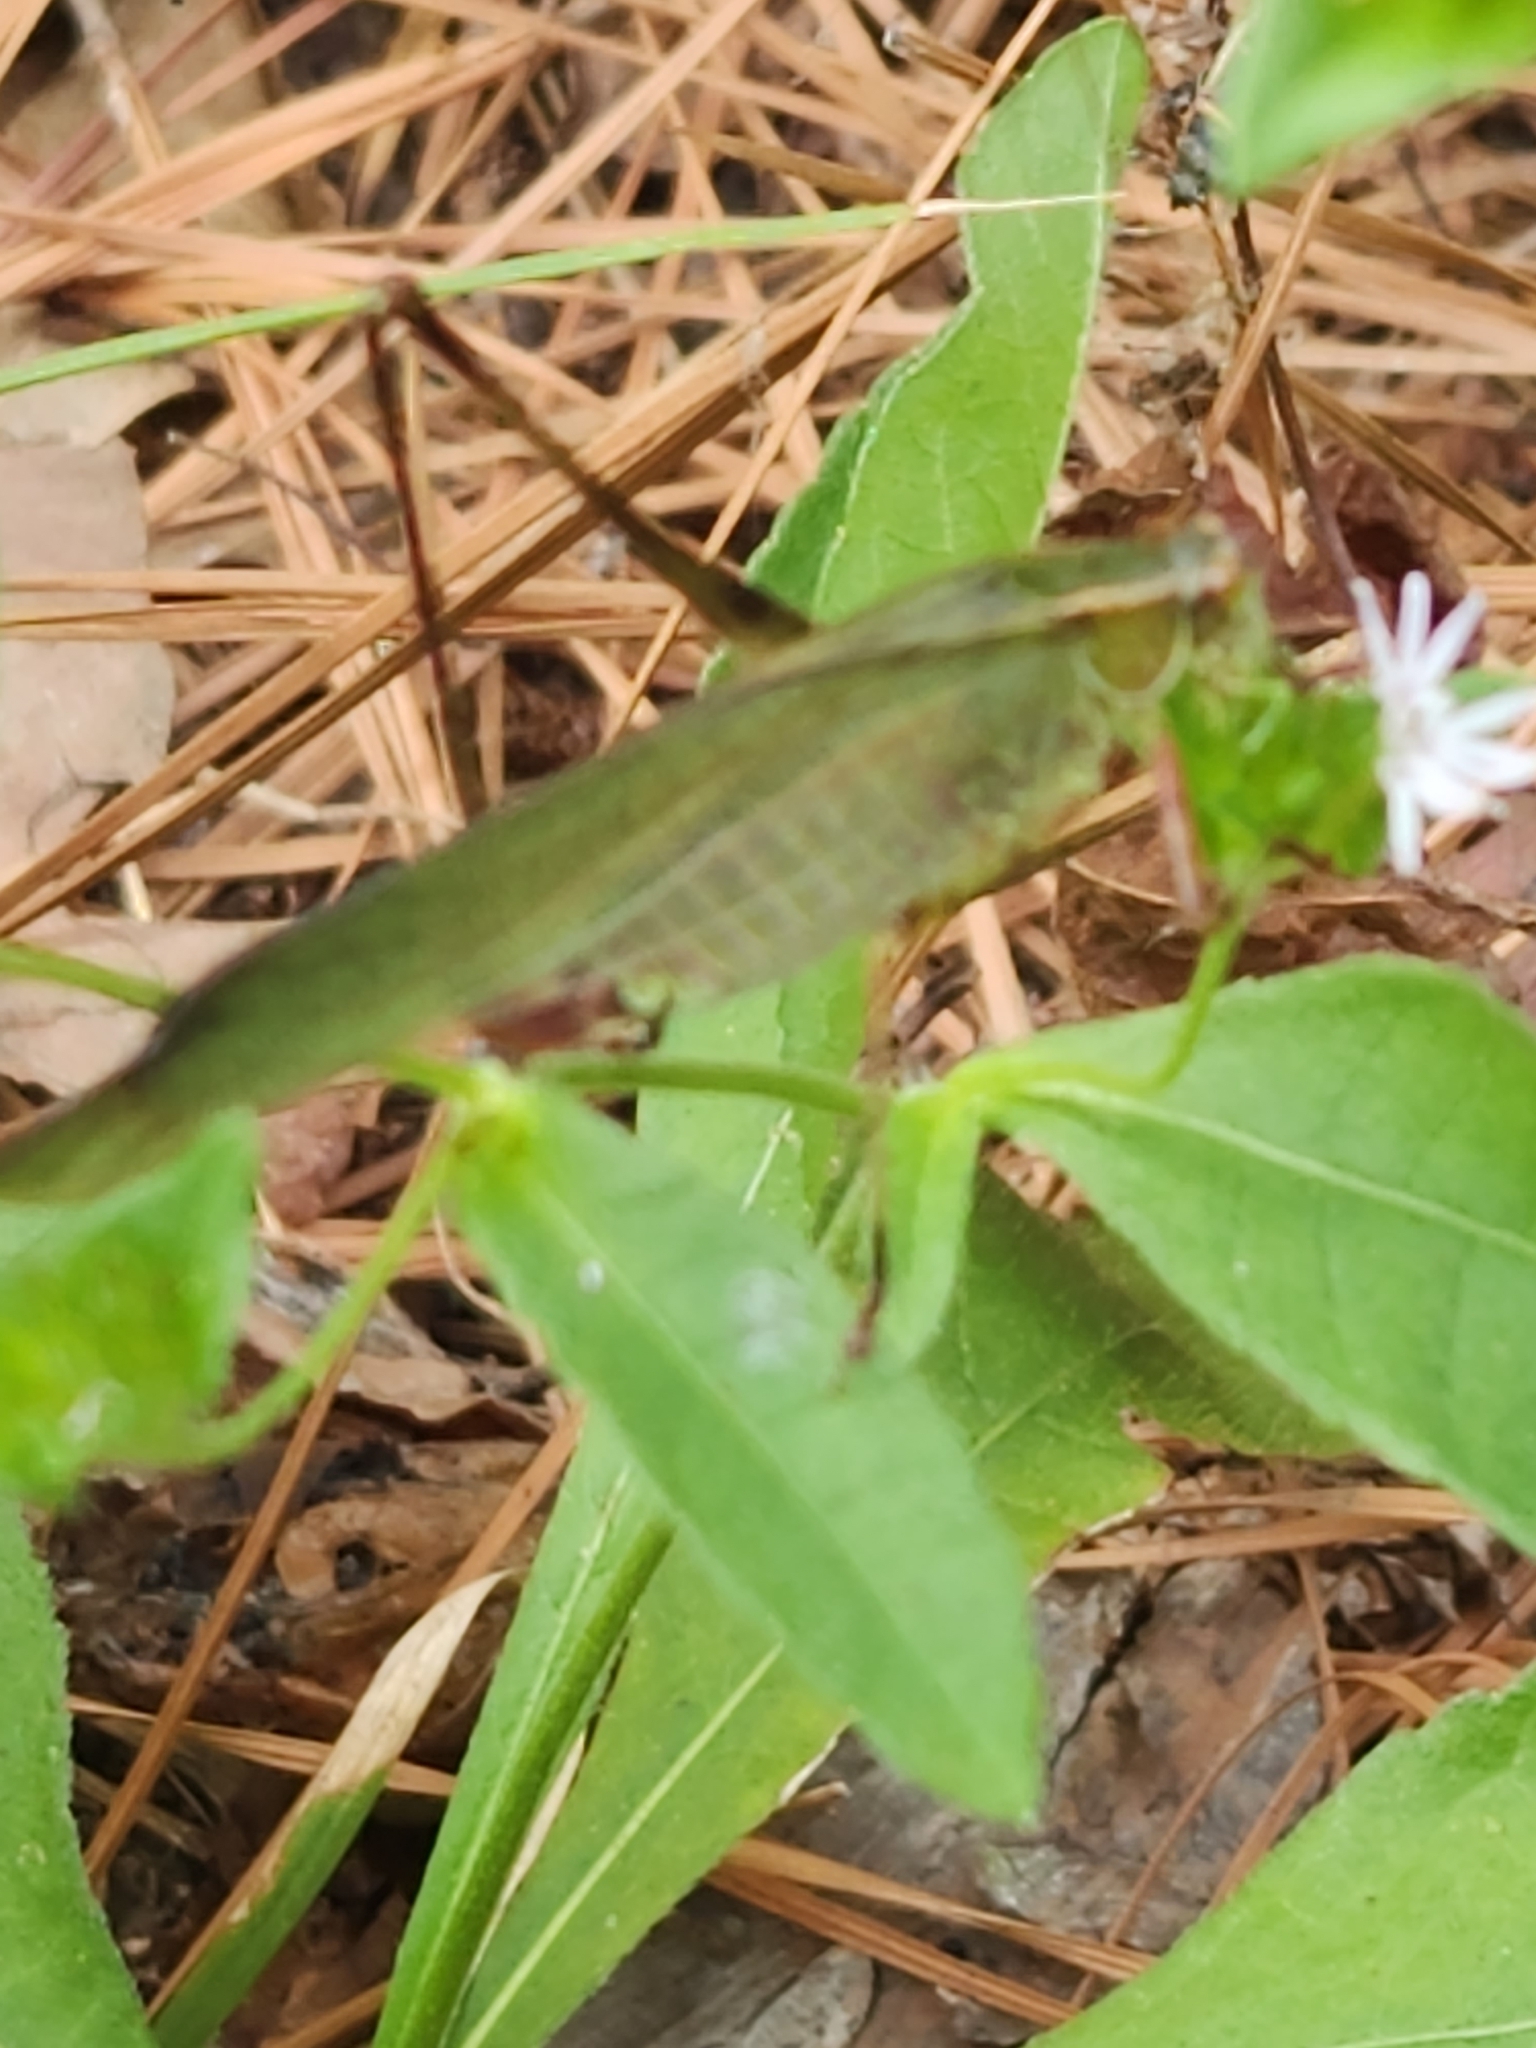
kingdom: Animalia
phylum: Arthropoda
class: Insecta
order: Orthoptera
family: Tettigoniidae
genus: Scudderia
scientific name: Scudderia furcata
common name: Fork-tailed bush katydid
